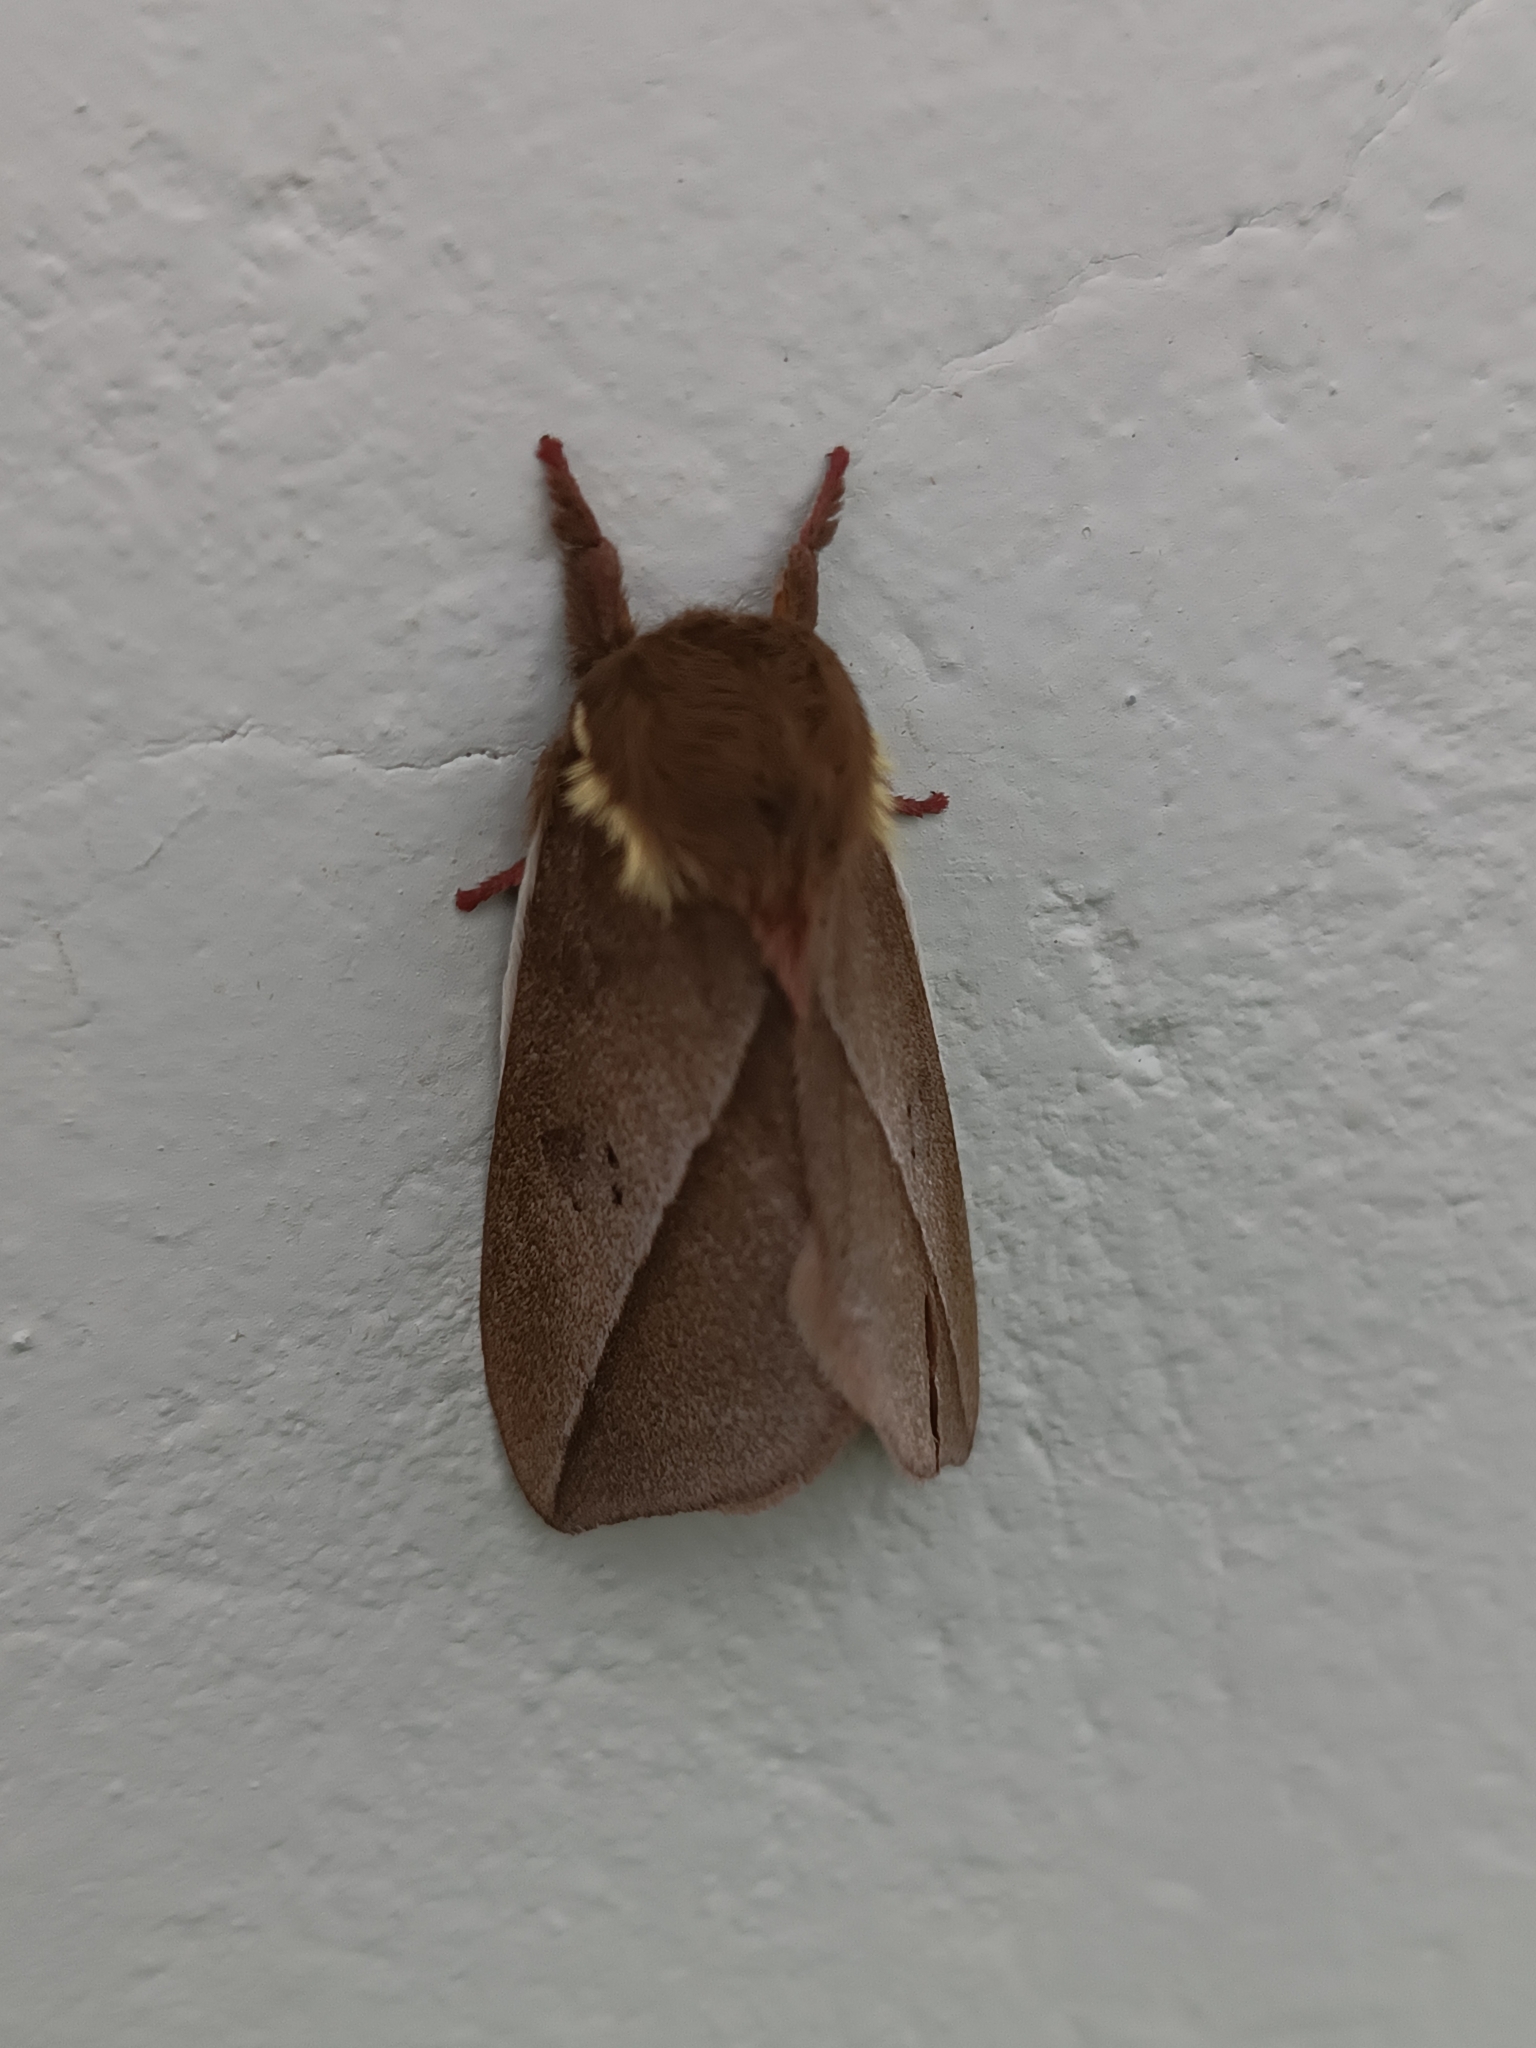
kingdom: Animalia
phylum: Arthropoda
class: Insecta
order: Lepidoptera
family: Saturniidae
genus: Automeris
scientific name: Automeris ovalina
